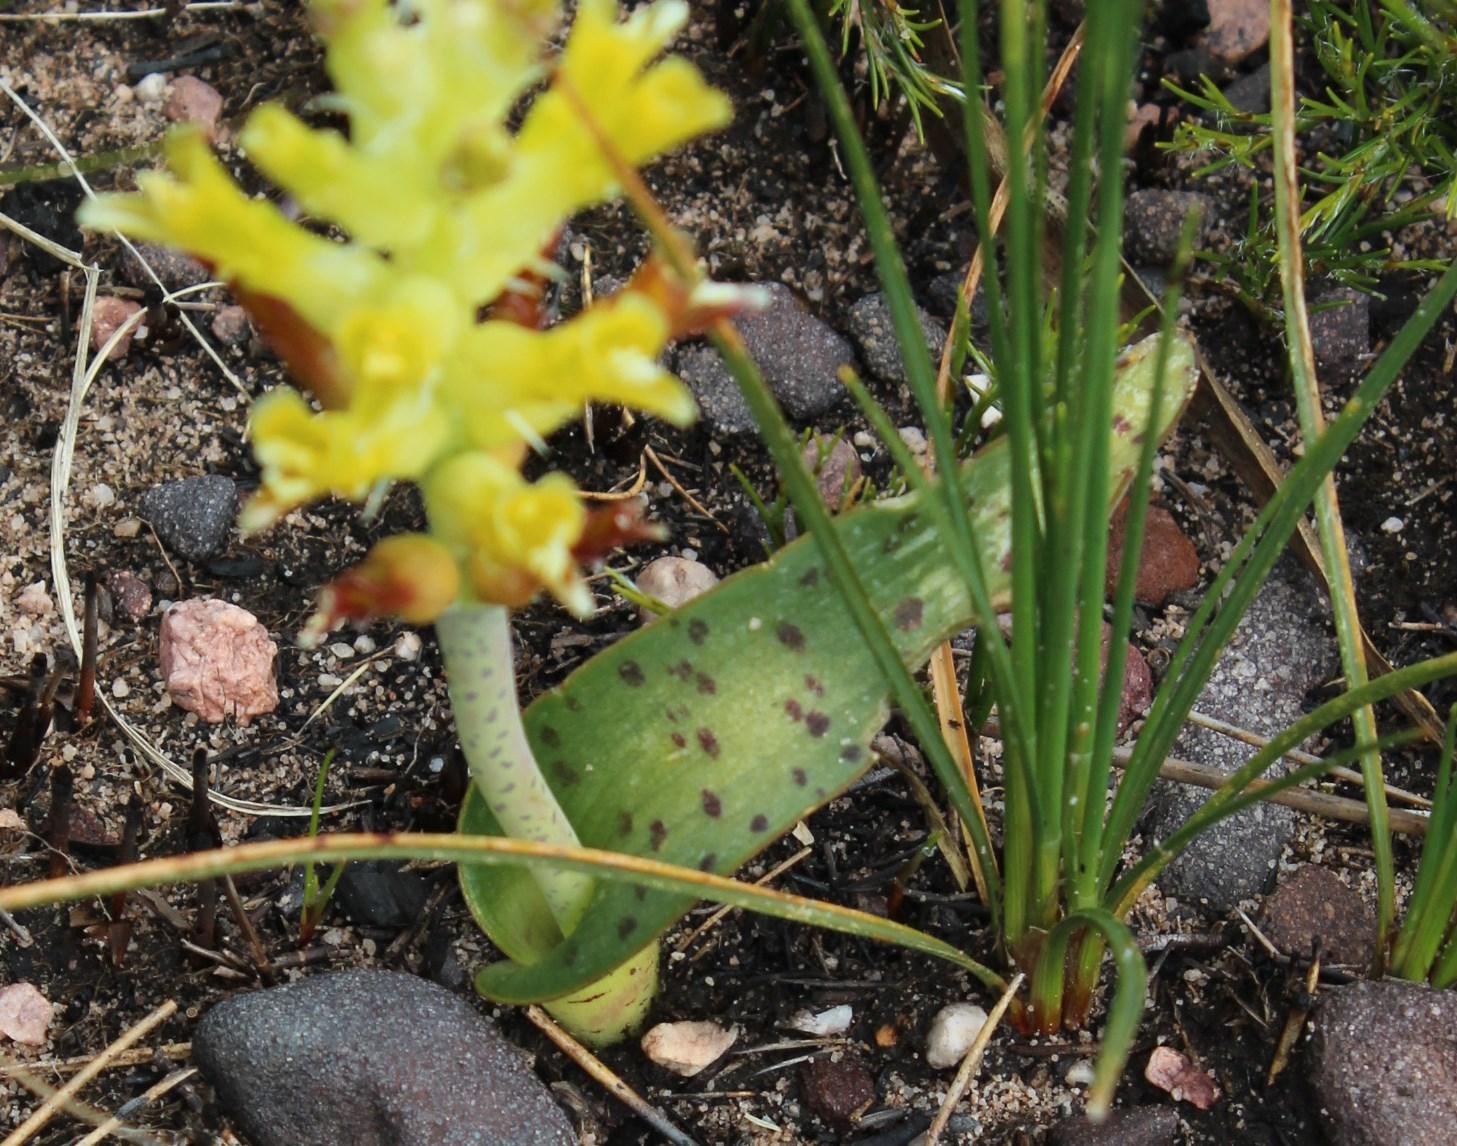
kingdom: Plantae
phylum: Tracheophyta
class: Liliopsida
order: Asparagales
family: Asparagaceae
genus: Lachenalia
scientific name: Lachenalia orchioides
